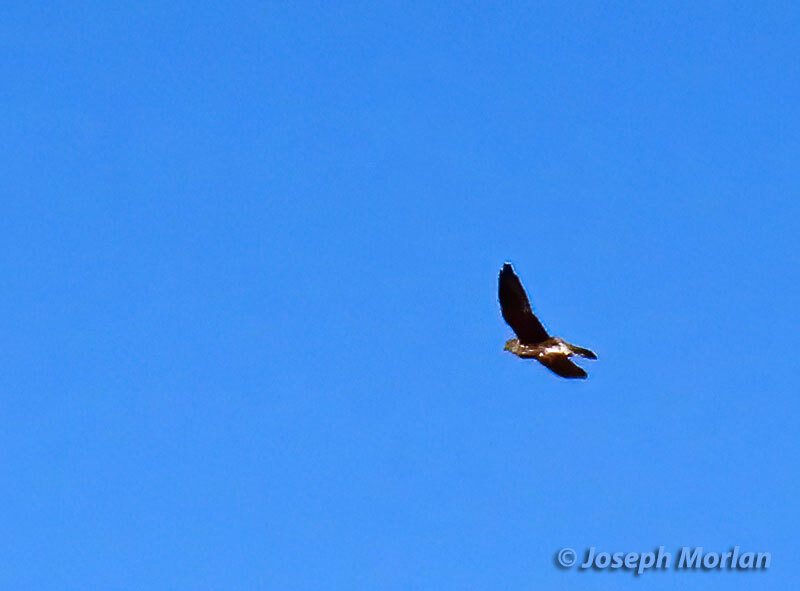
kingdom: Animalia
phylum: Chordata
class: Aves
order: Falconiformes
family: Falconidae
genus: Falco
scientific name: Falco columbarius
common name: Merlin
